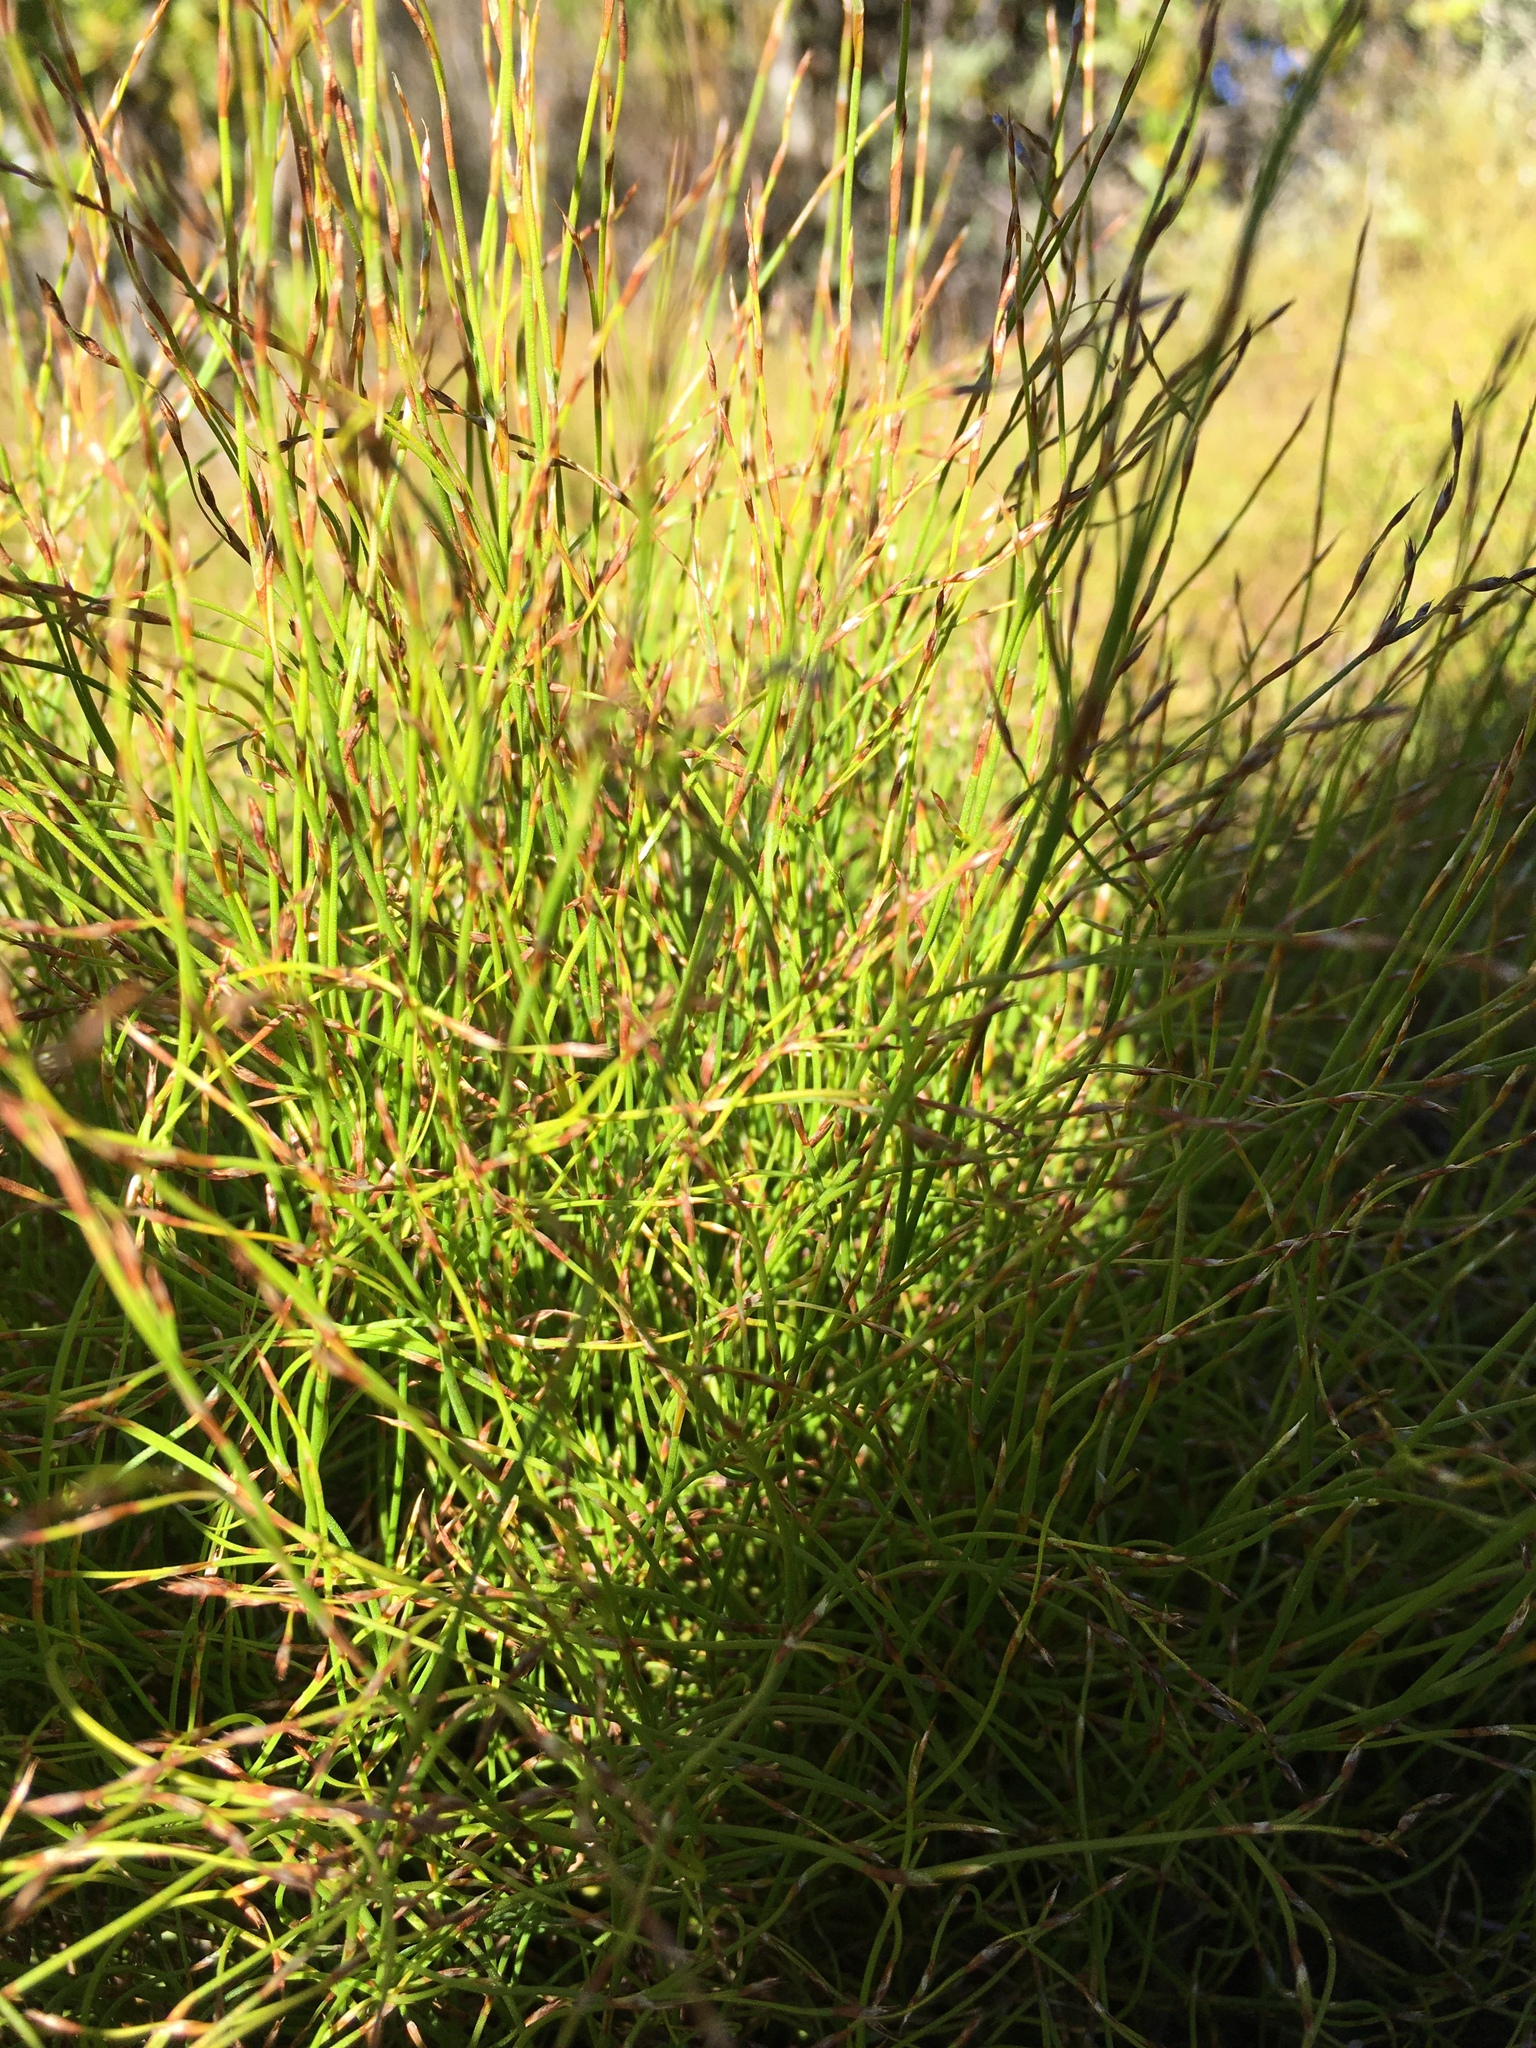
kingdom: Plantae
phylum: Tracheophyta
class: Liliopsida
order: Poales
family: Restionaceae
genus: Anthochortus
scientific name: Anthochortus crinalis
